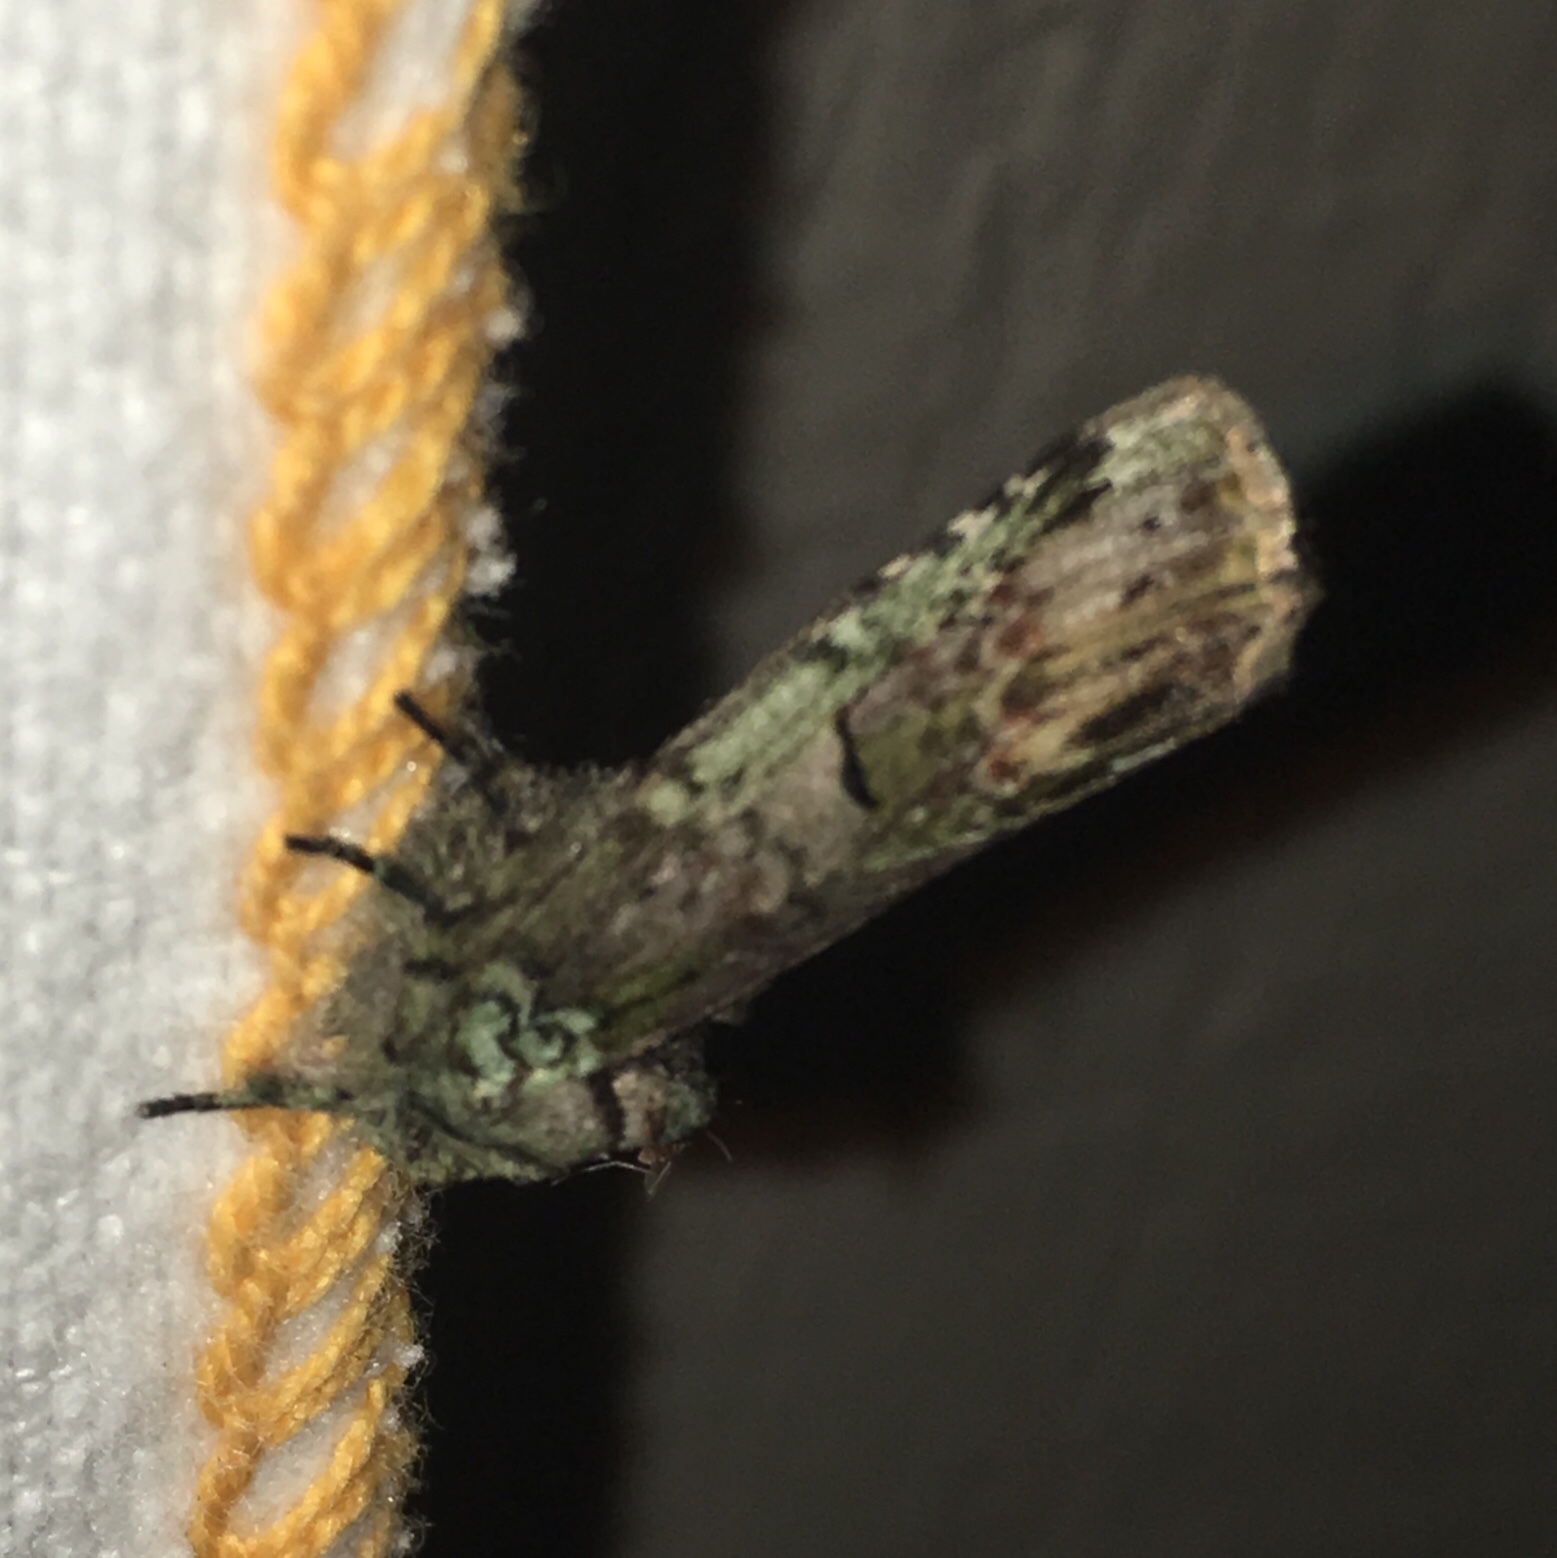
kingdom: Animalia
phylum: Arthropoda
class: Insecta
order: Lepidoptera
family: Notodontidae
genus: Schizura
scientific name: Schizura
